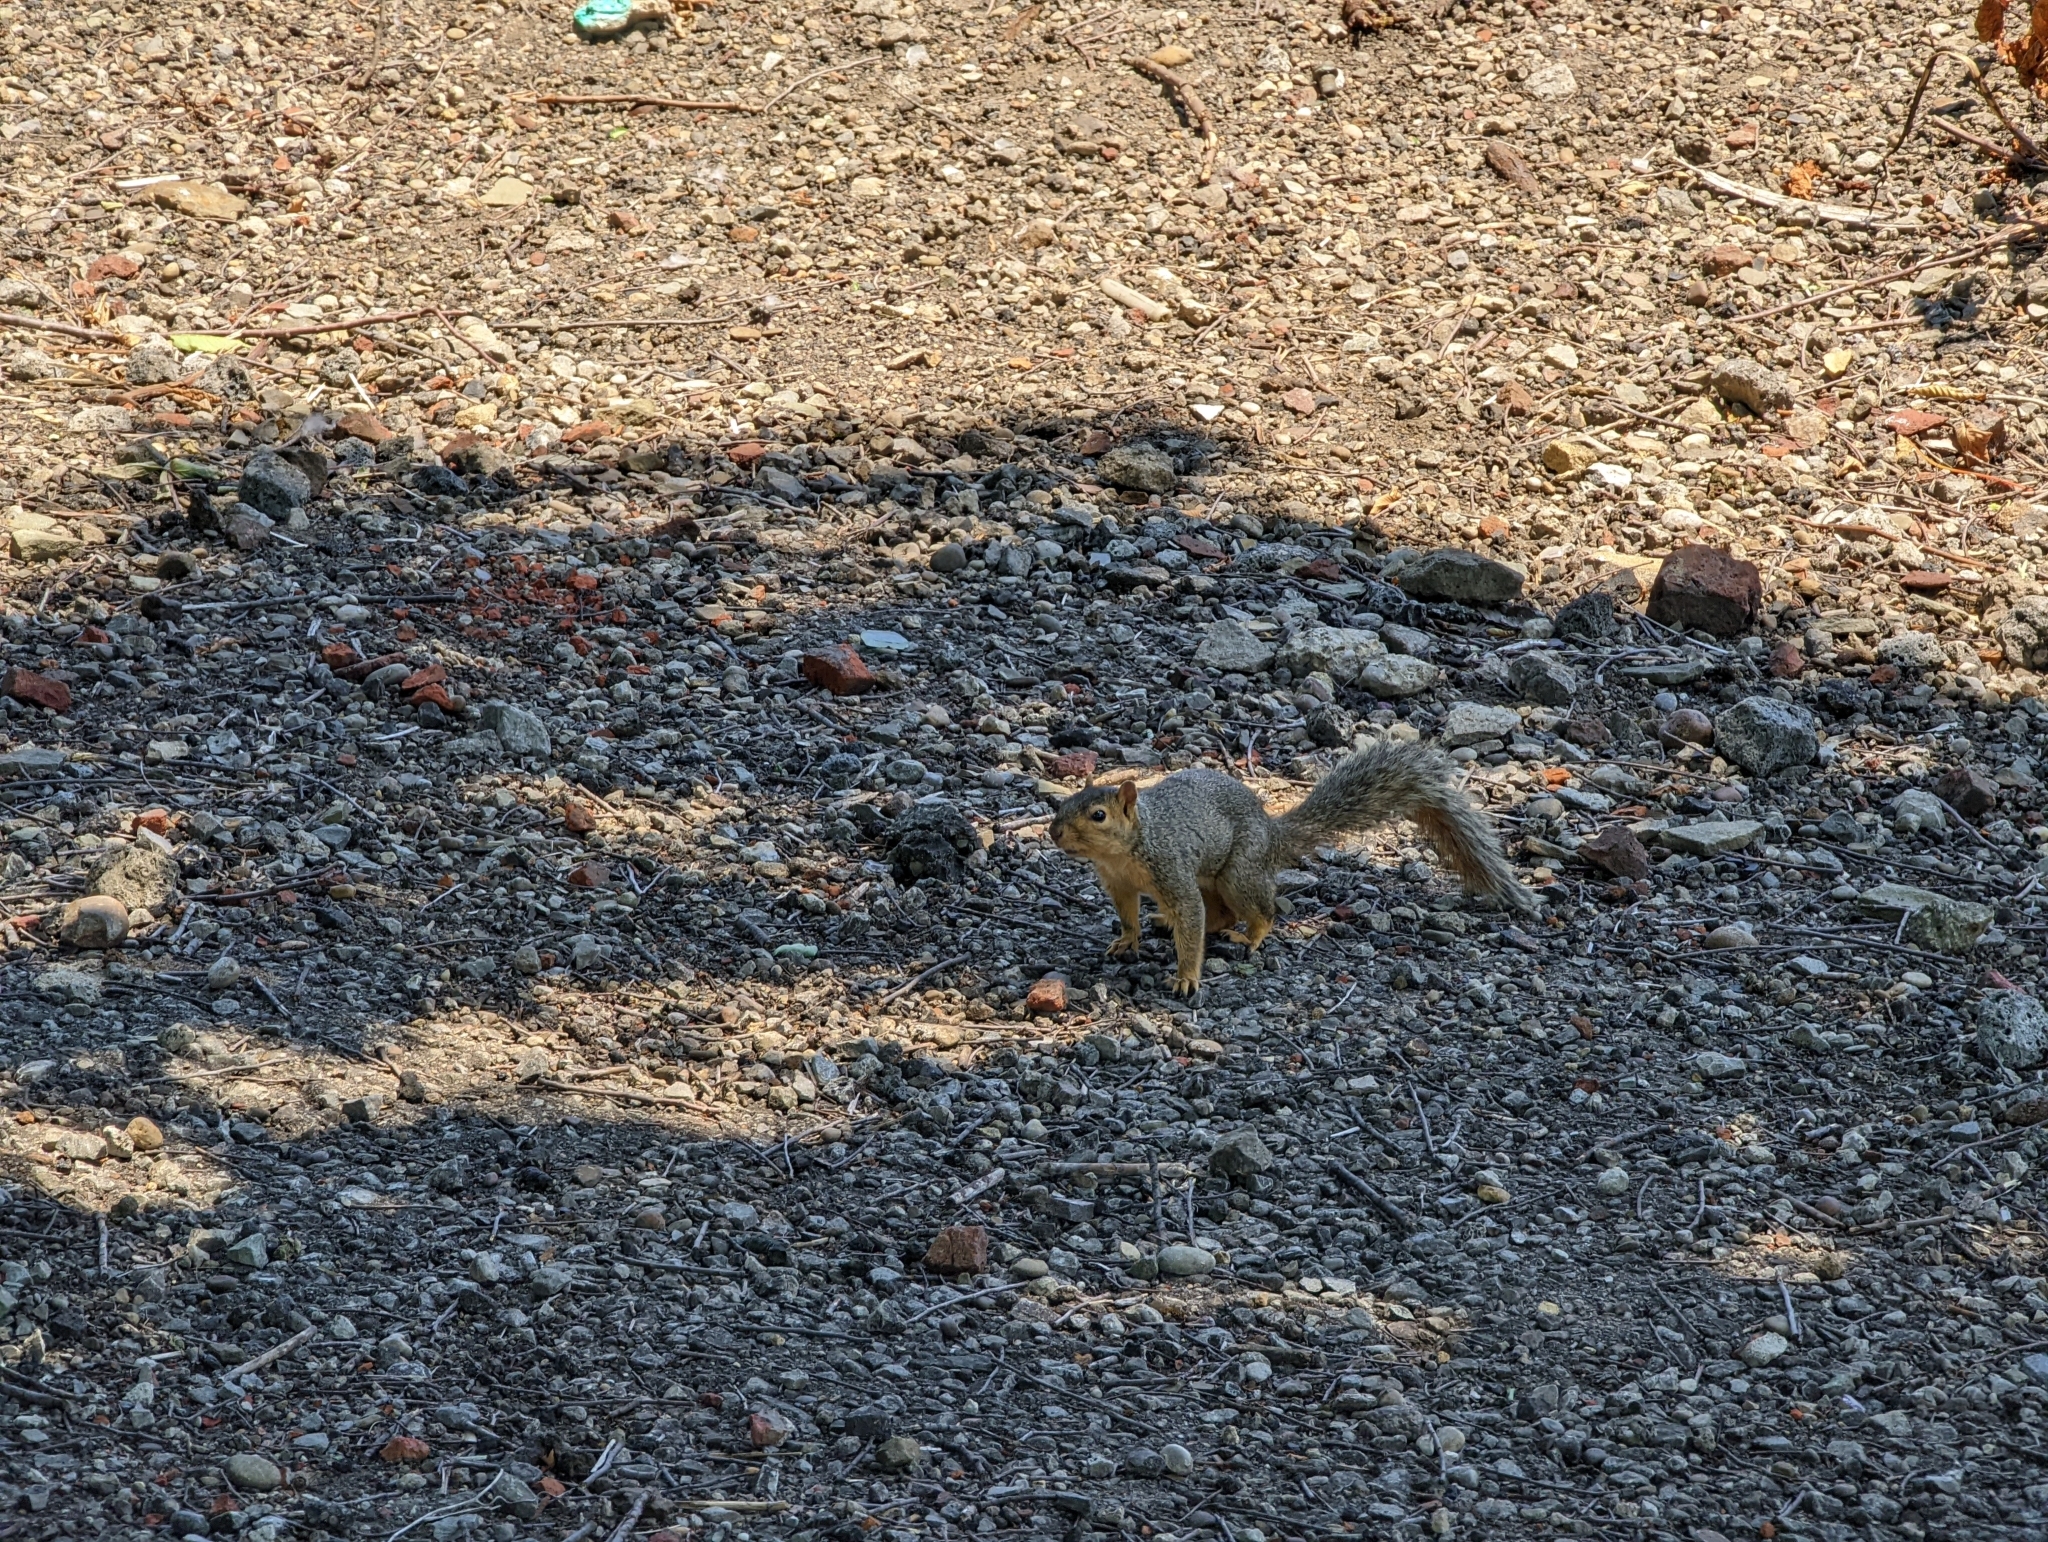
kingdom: Animalia
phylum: Chordata
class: Mammalia
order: Rodentia
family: Sciuridae
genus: Sciurus
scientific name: Sciurus niger
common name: Fox squirrel
